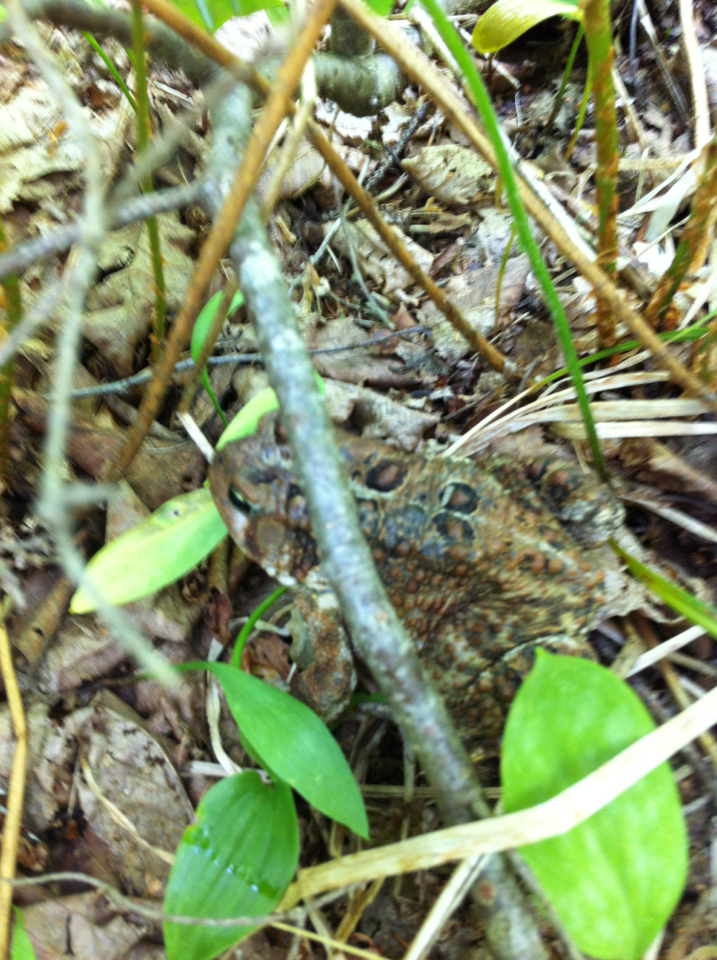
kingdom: Animalia
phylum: Chordata
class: Amphibia
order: Anura
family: Bufonidae
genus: Anaxyrus
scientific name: Anaxyrus americanus
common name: American toad
